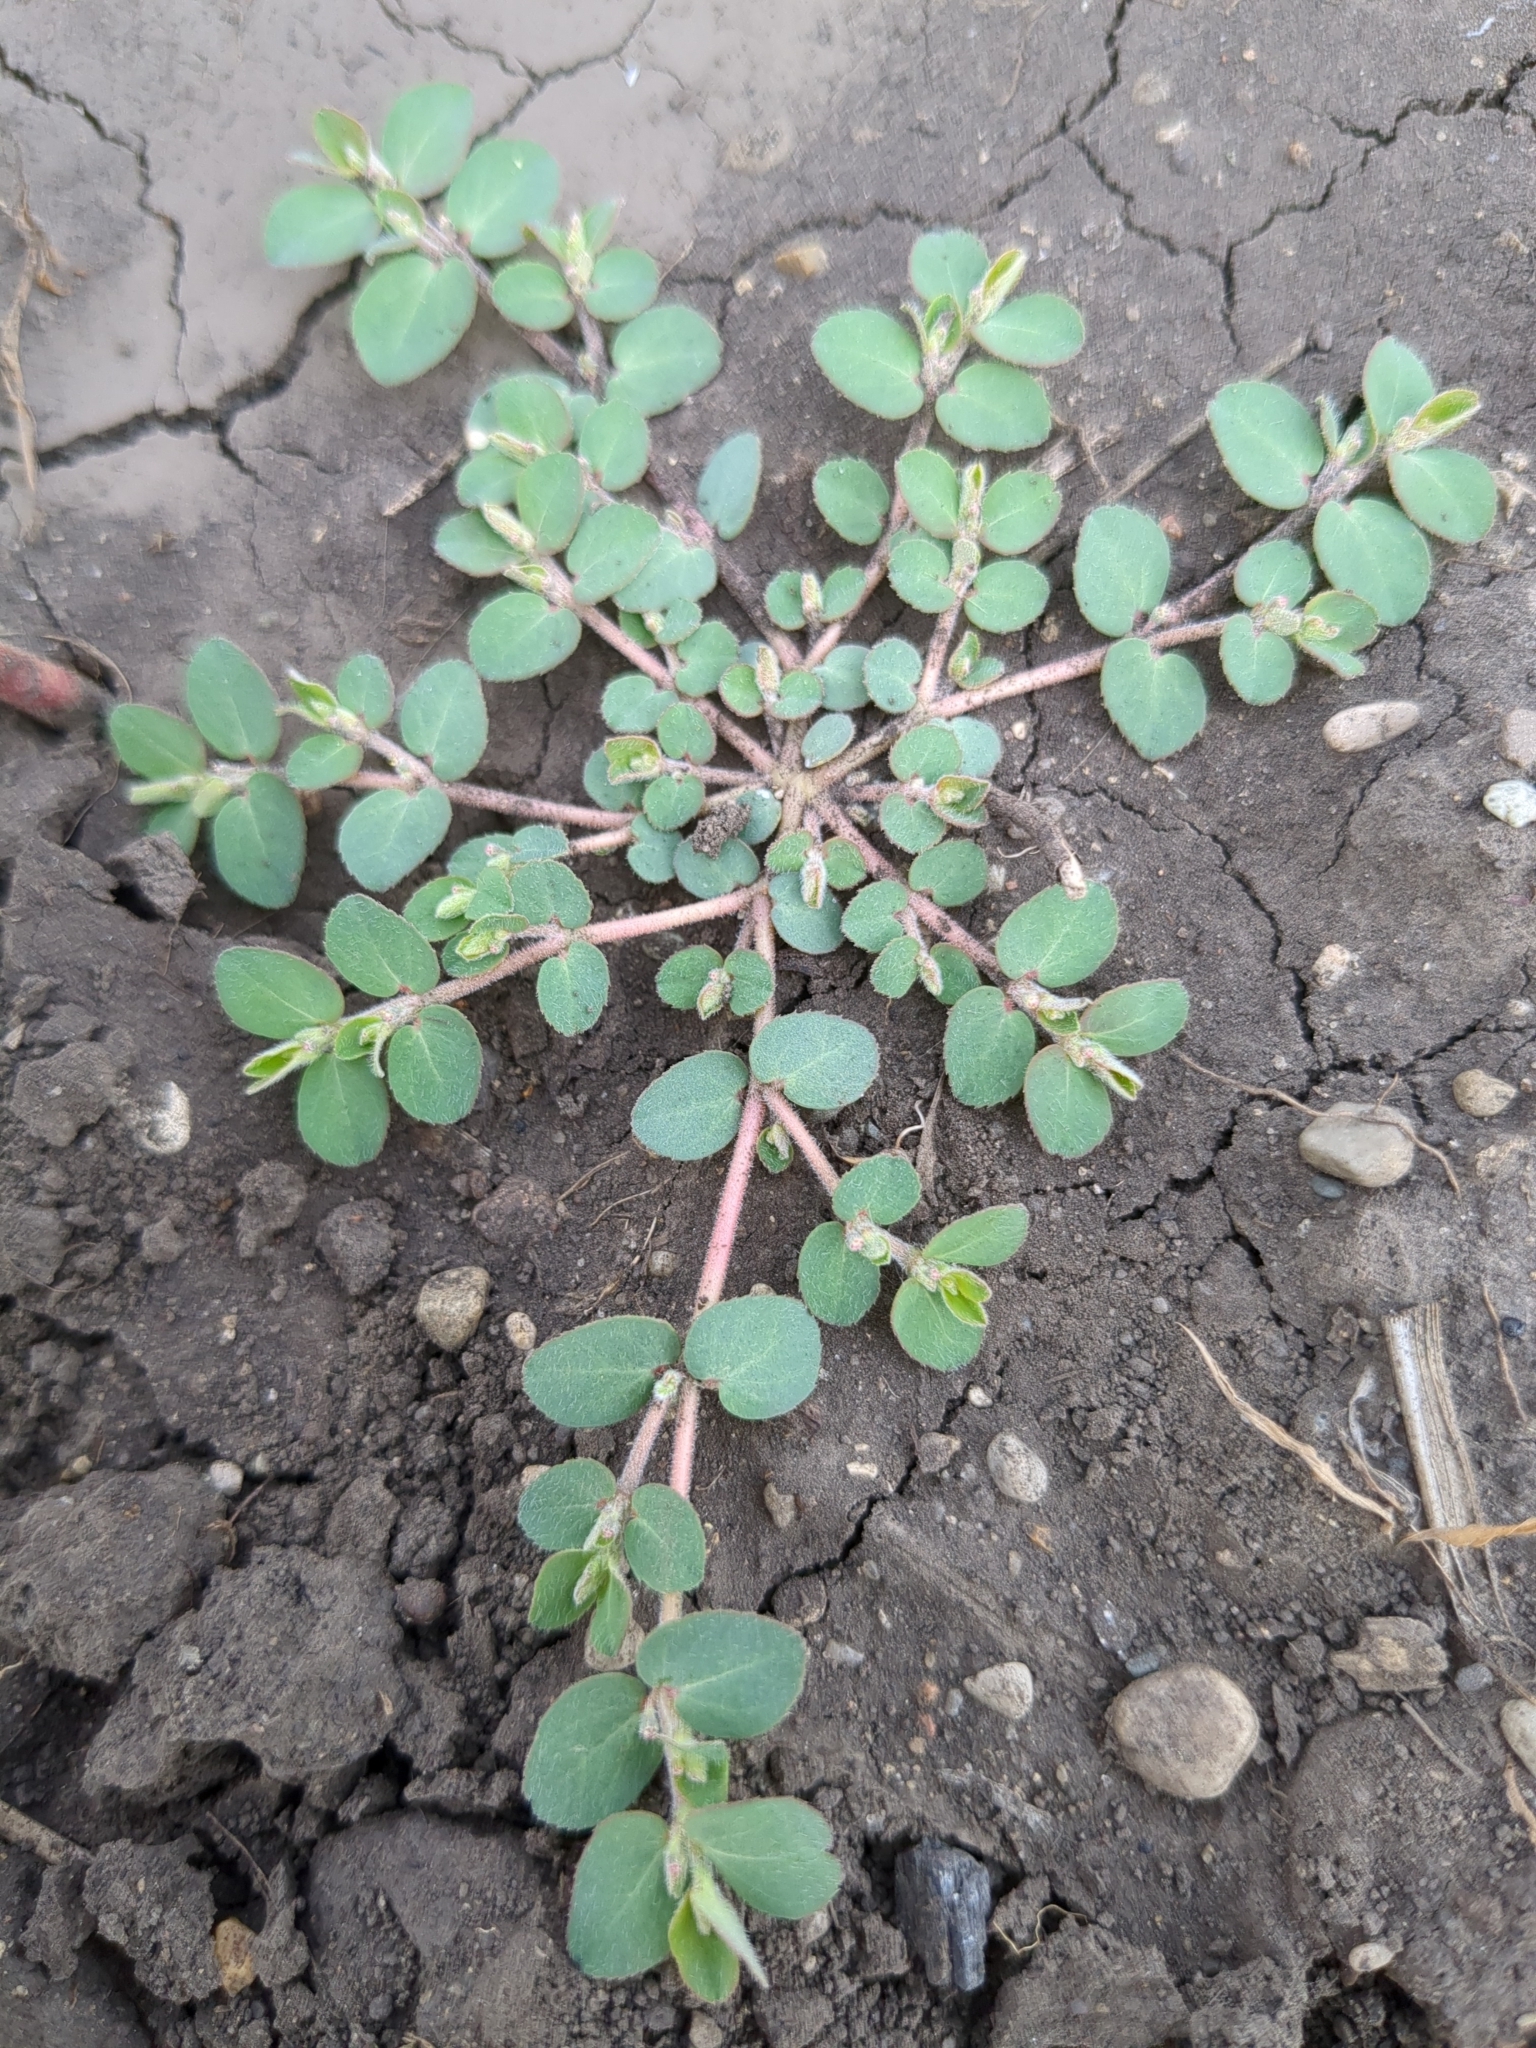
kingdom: Plantae
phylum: Tracheophyta
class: Magnoliopsida
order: Malpighiales
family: Euphorbiaceae
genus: Euphorbia
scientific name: Euphorbia prostrata
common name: Prostrate sandmat
